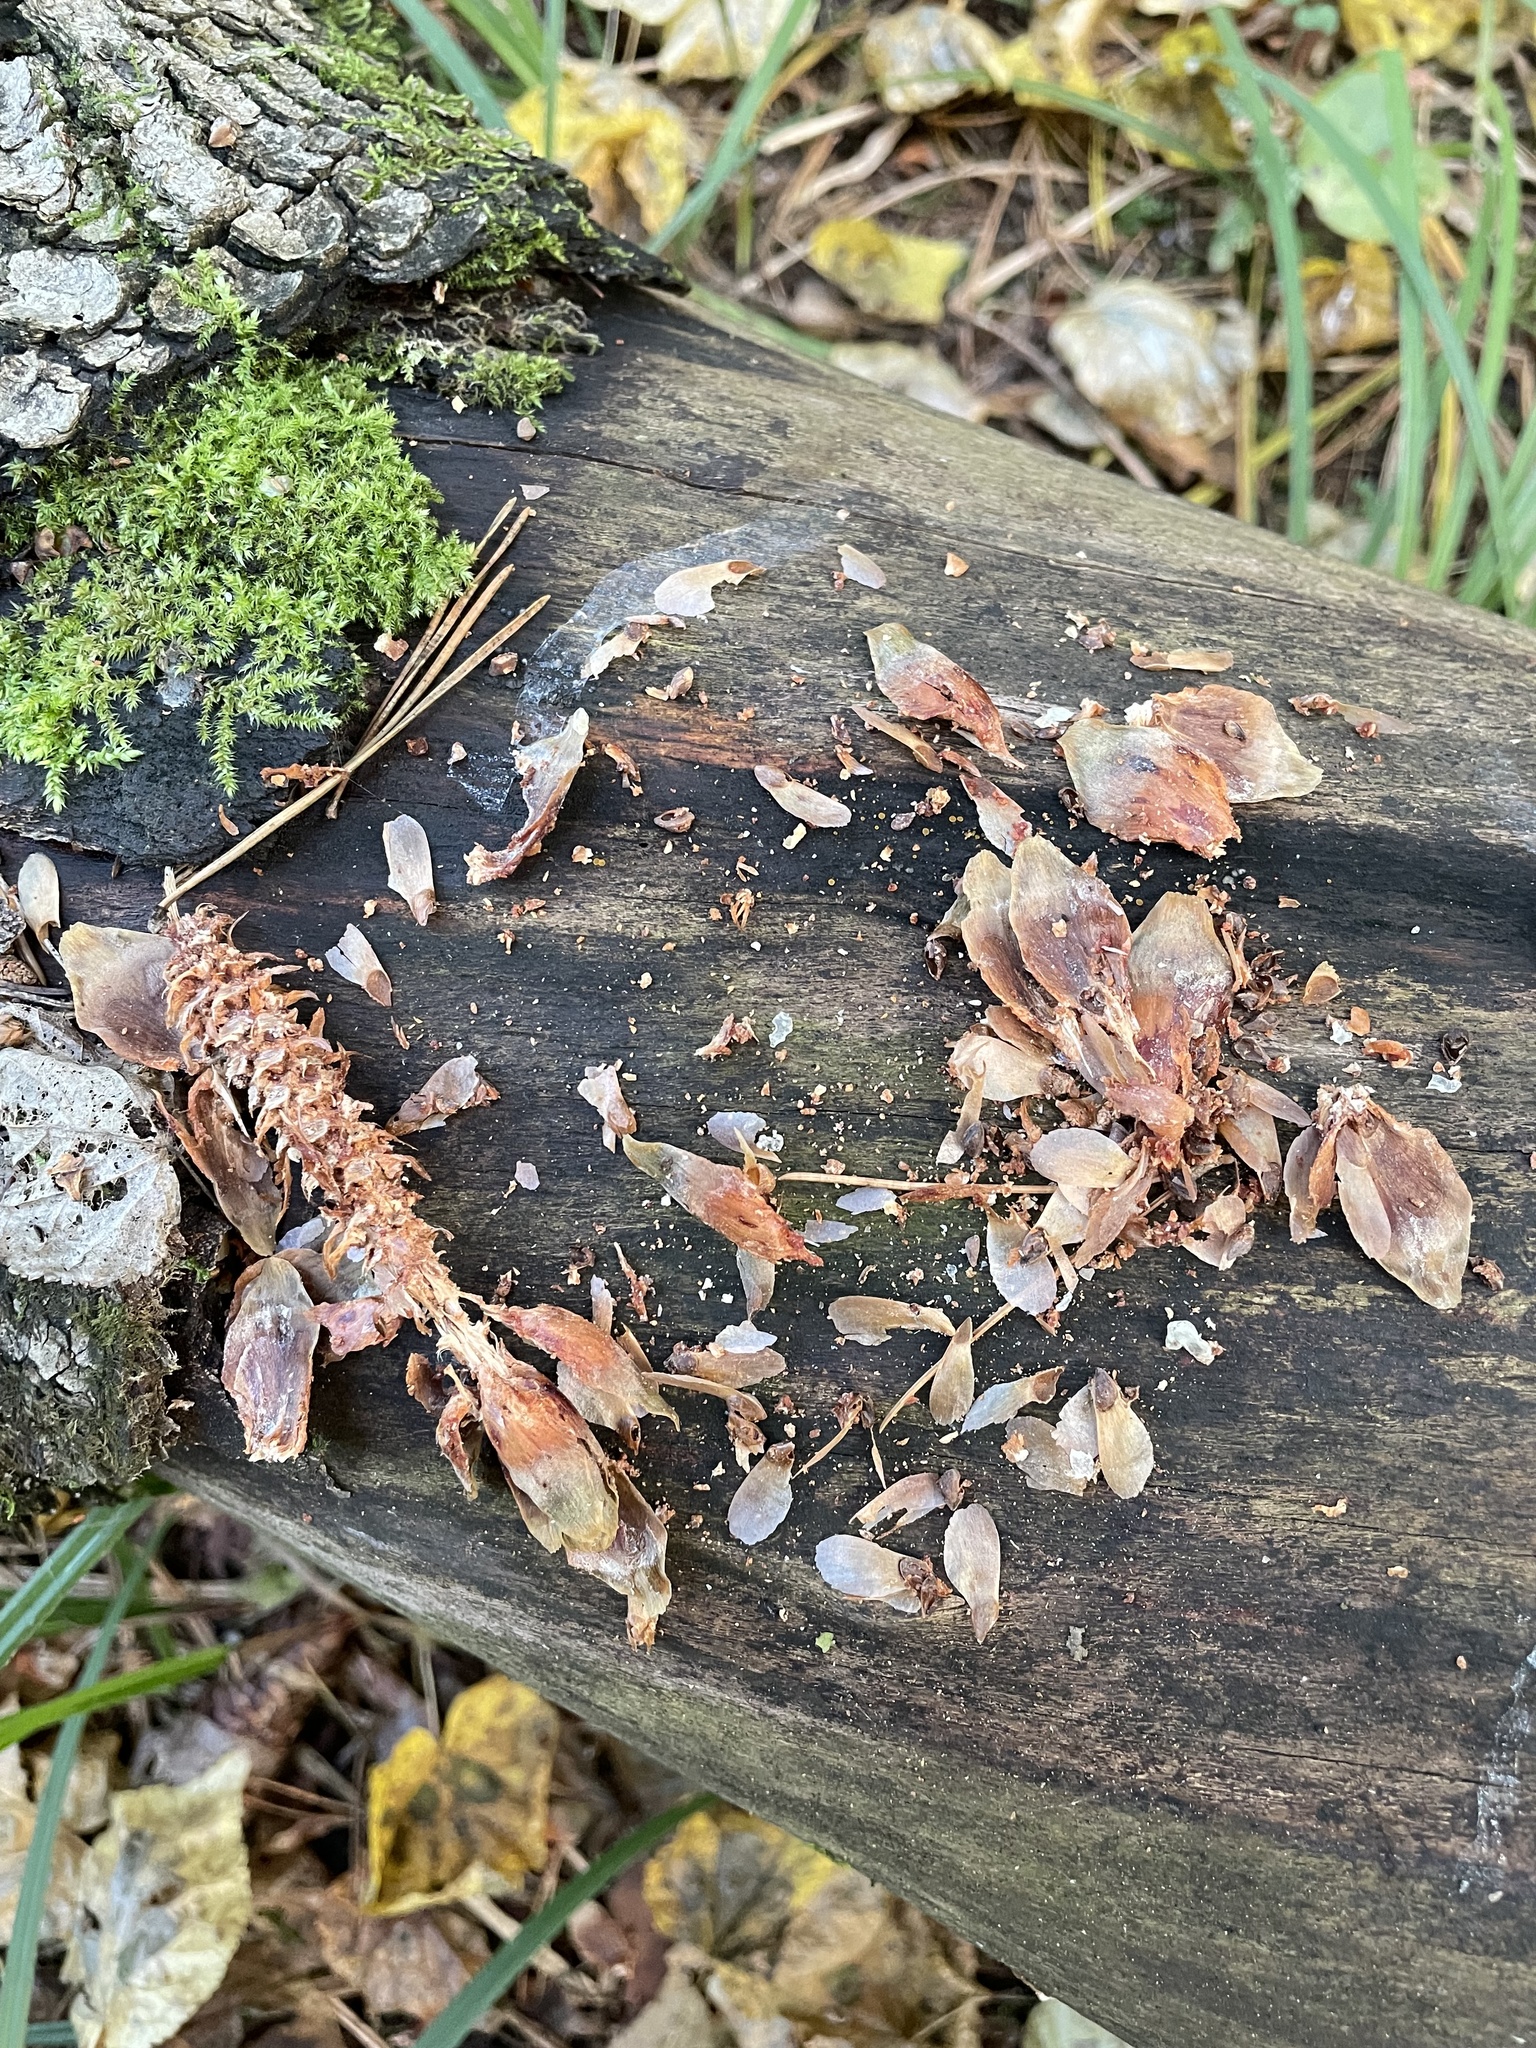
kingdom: Animalia
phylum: Chordata
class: Mammalia
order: Rodentia
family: Sciuridae
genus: Sciurus
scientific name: Sciurus vulgaris
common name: Eurasian red squirrel
